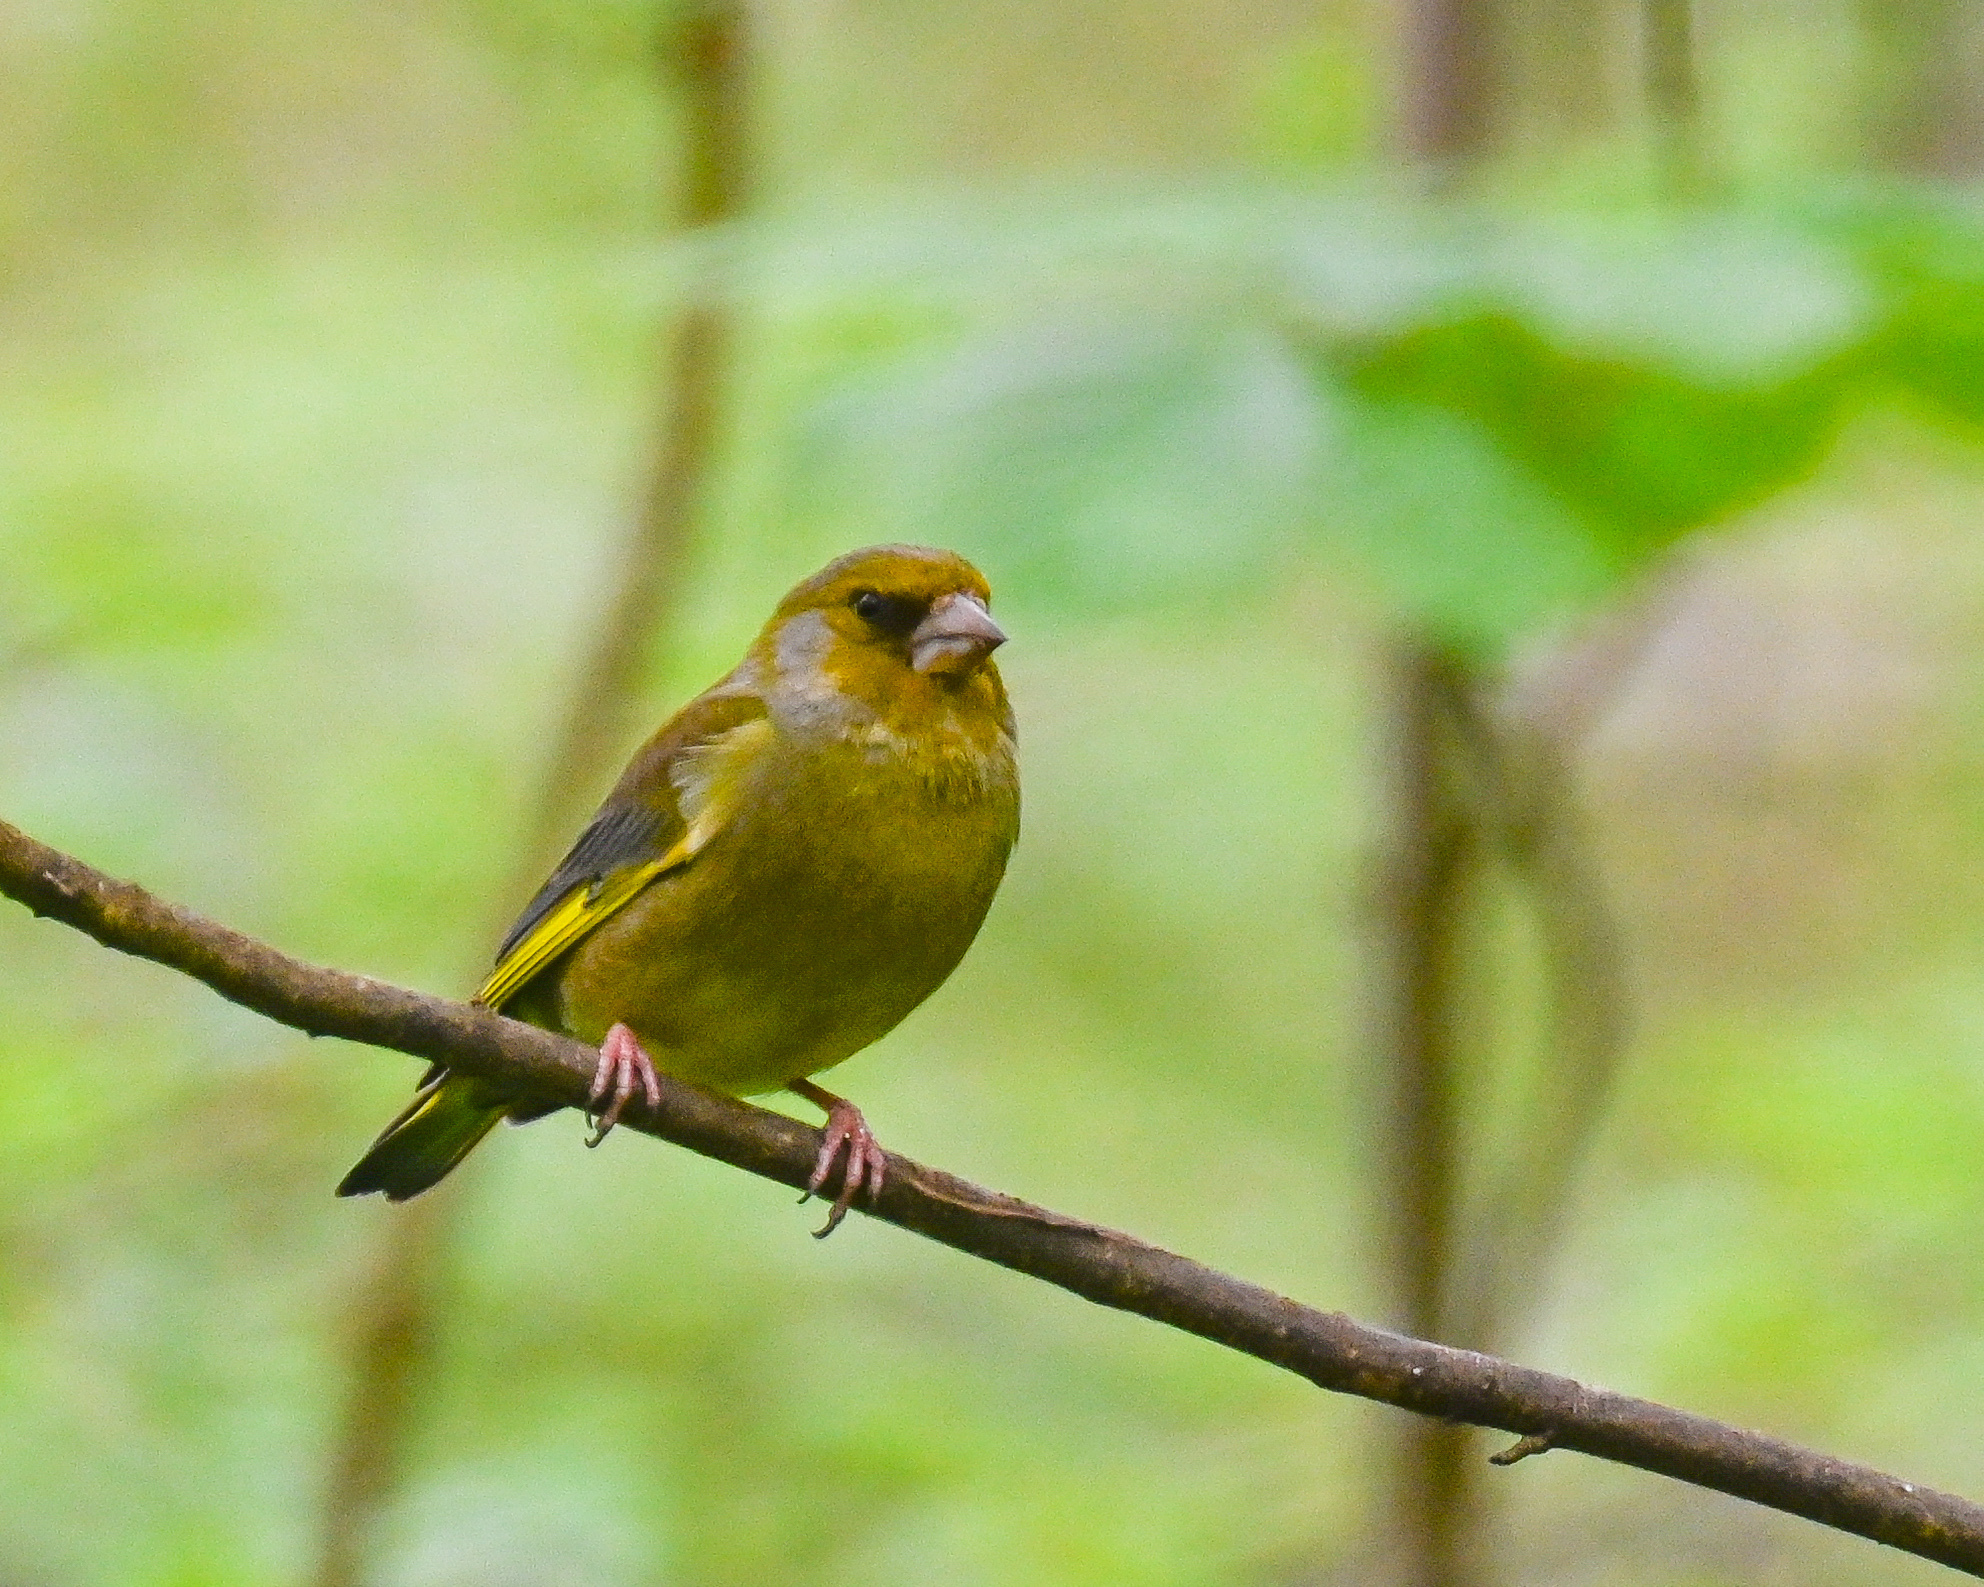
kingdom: Plantae
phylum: Tracheophyta
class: Liliopsida
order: Poales
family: Poaceae
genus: Chloris
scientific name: Chloris chloris
